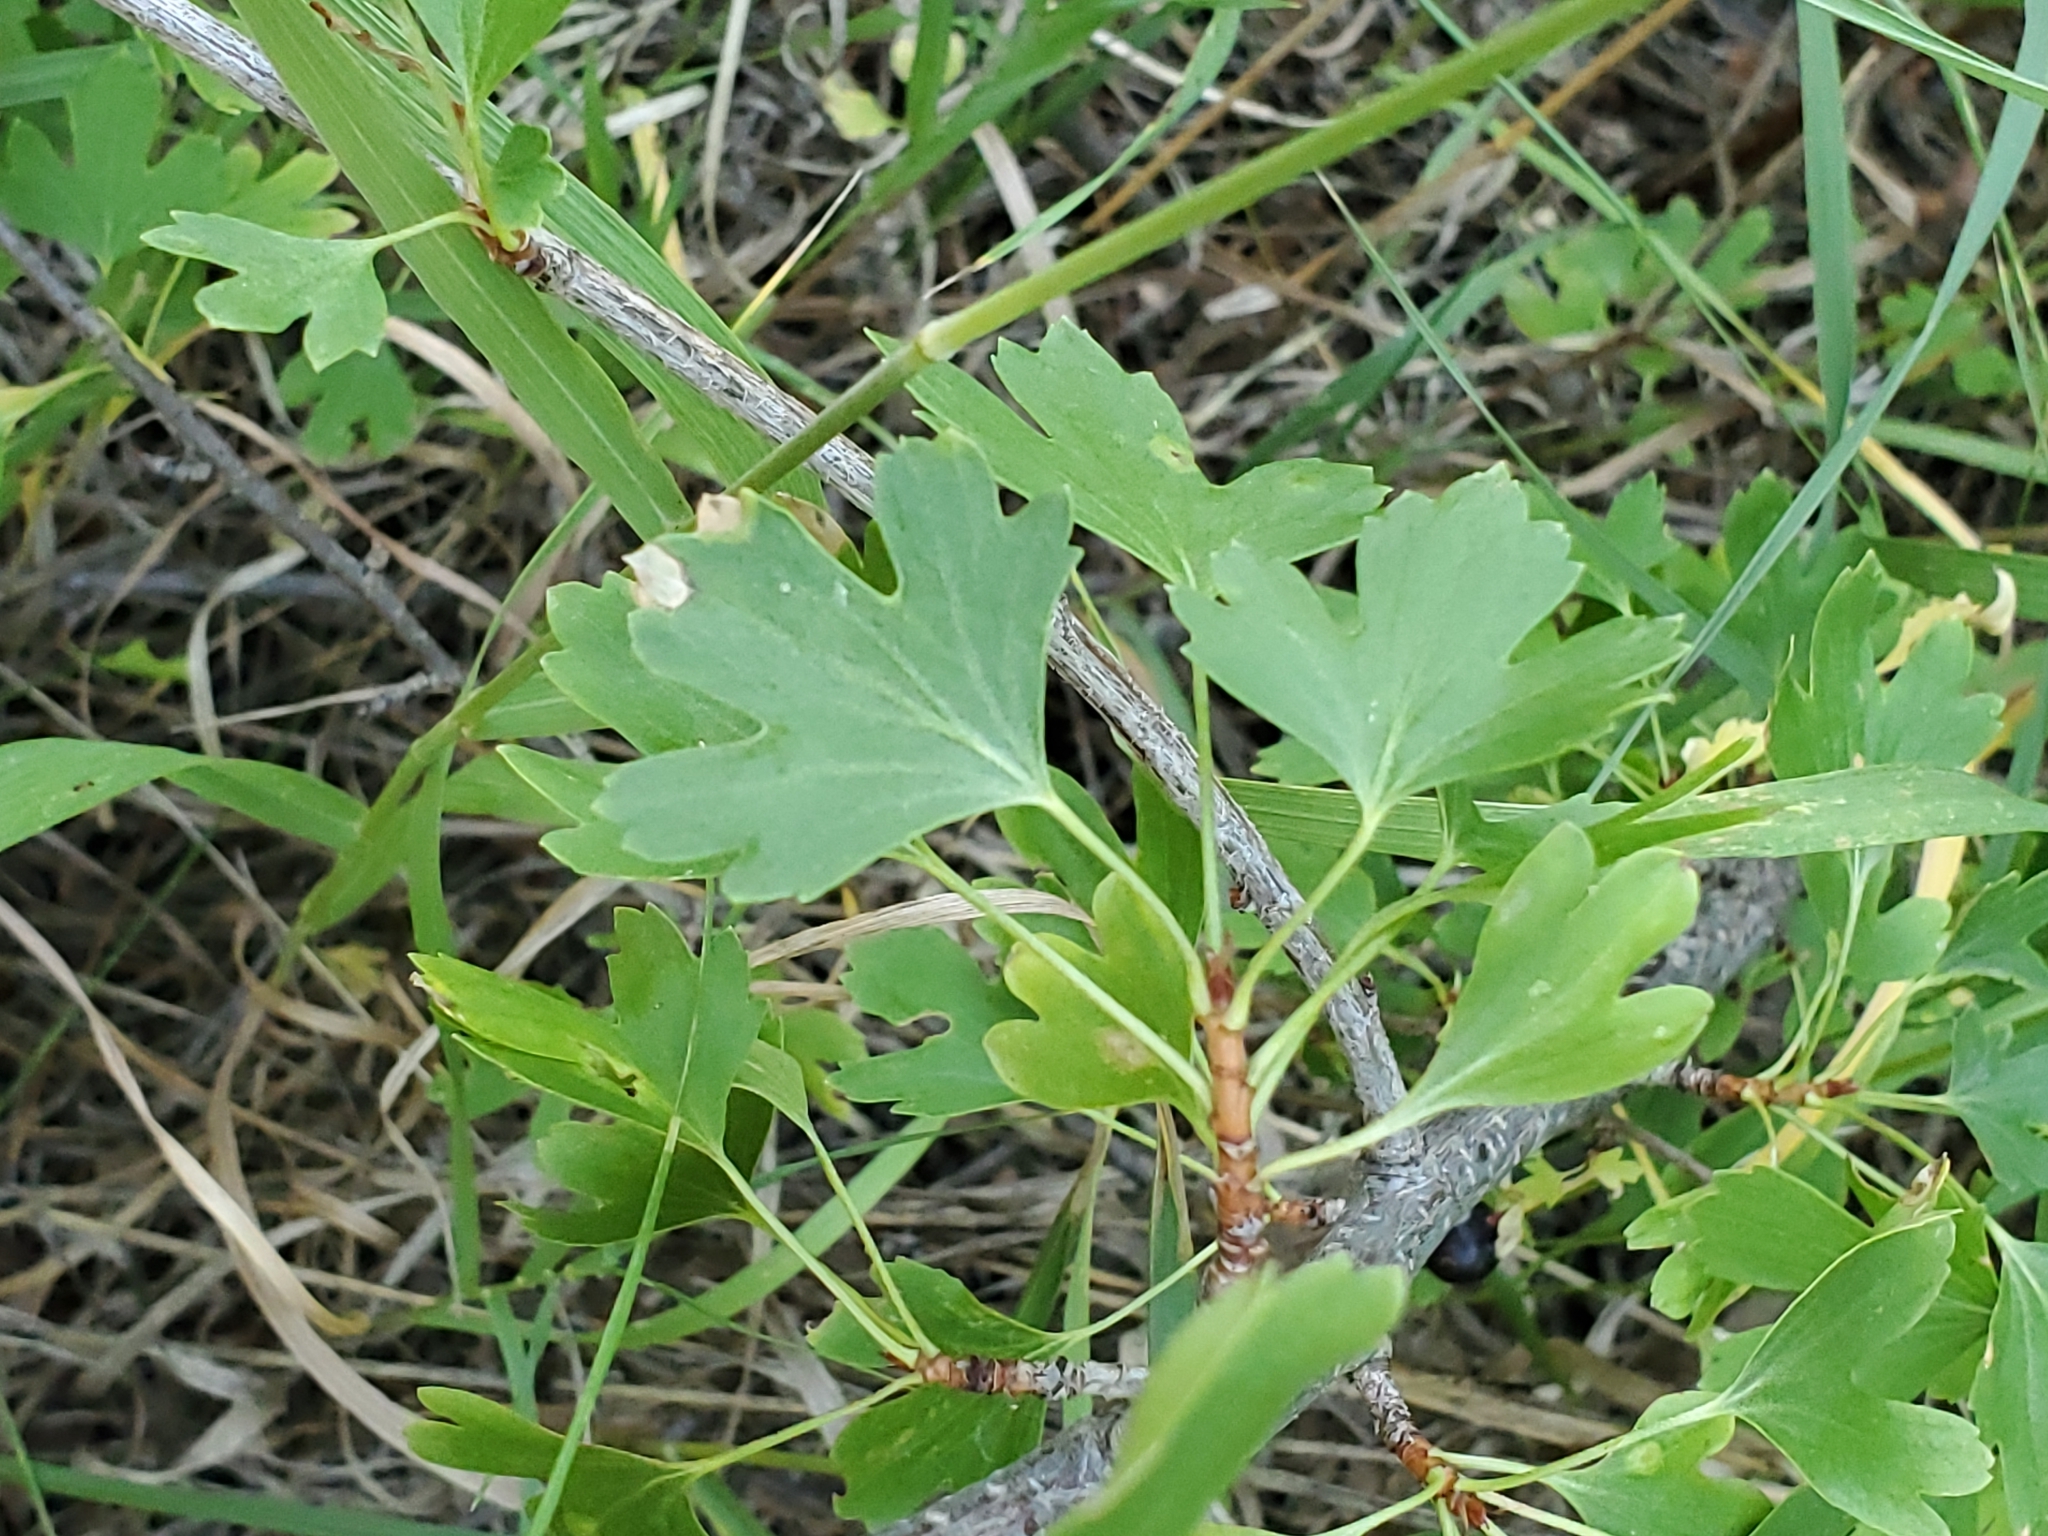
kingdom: Plantae
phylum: Tracheophyta
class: Magnoliopsida
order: Saxifragales
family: Grossulariaceae
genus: Ribes
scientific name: Ribes aureum
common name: Golden currant
